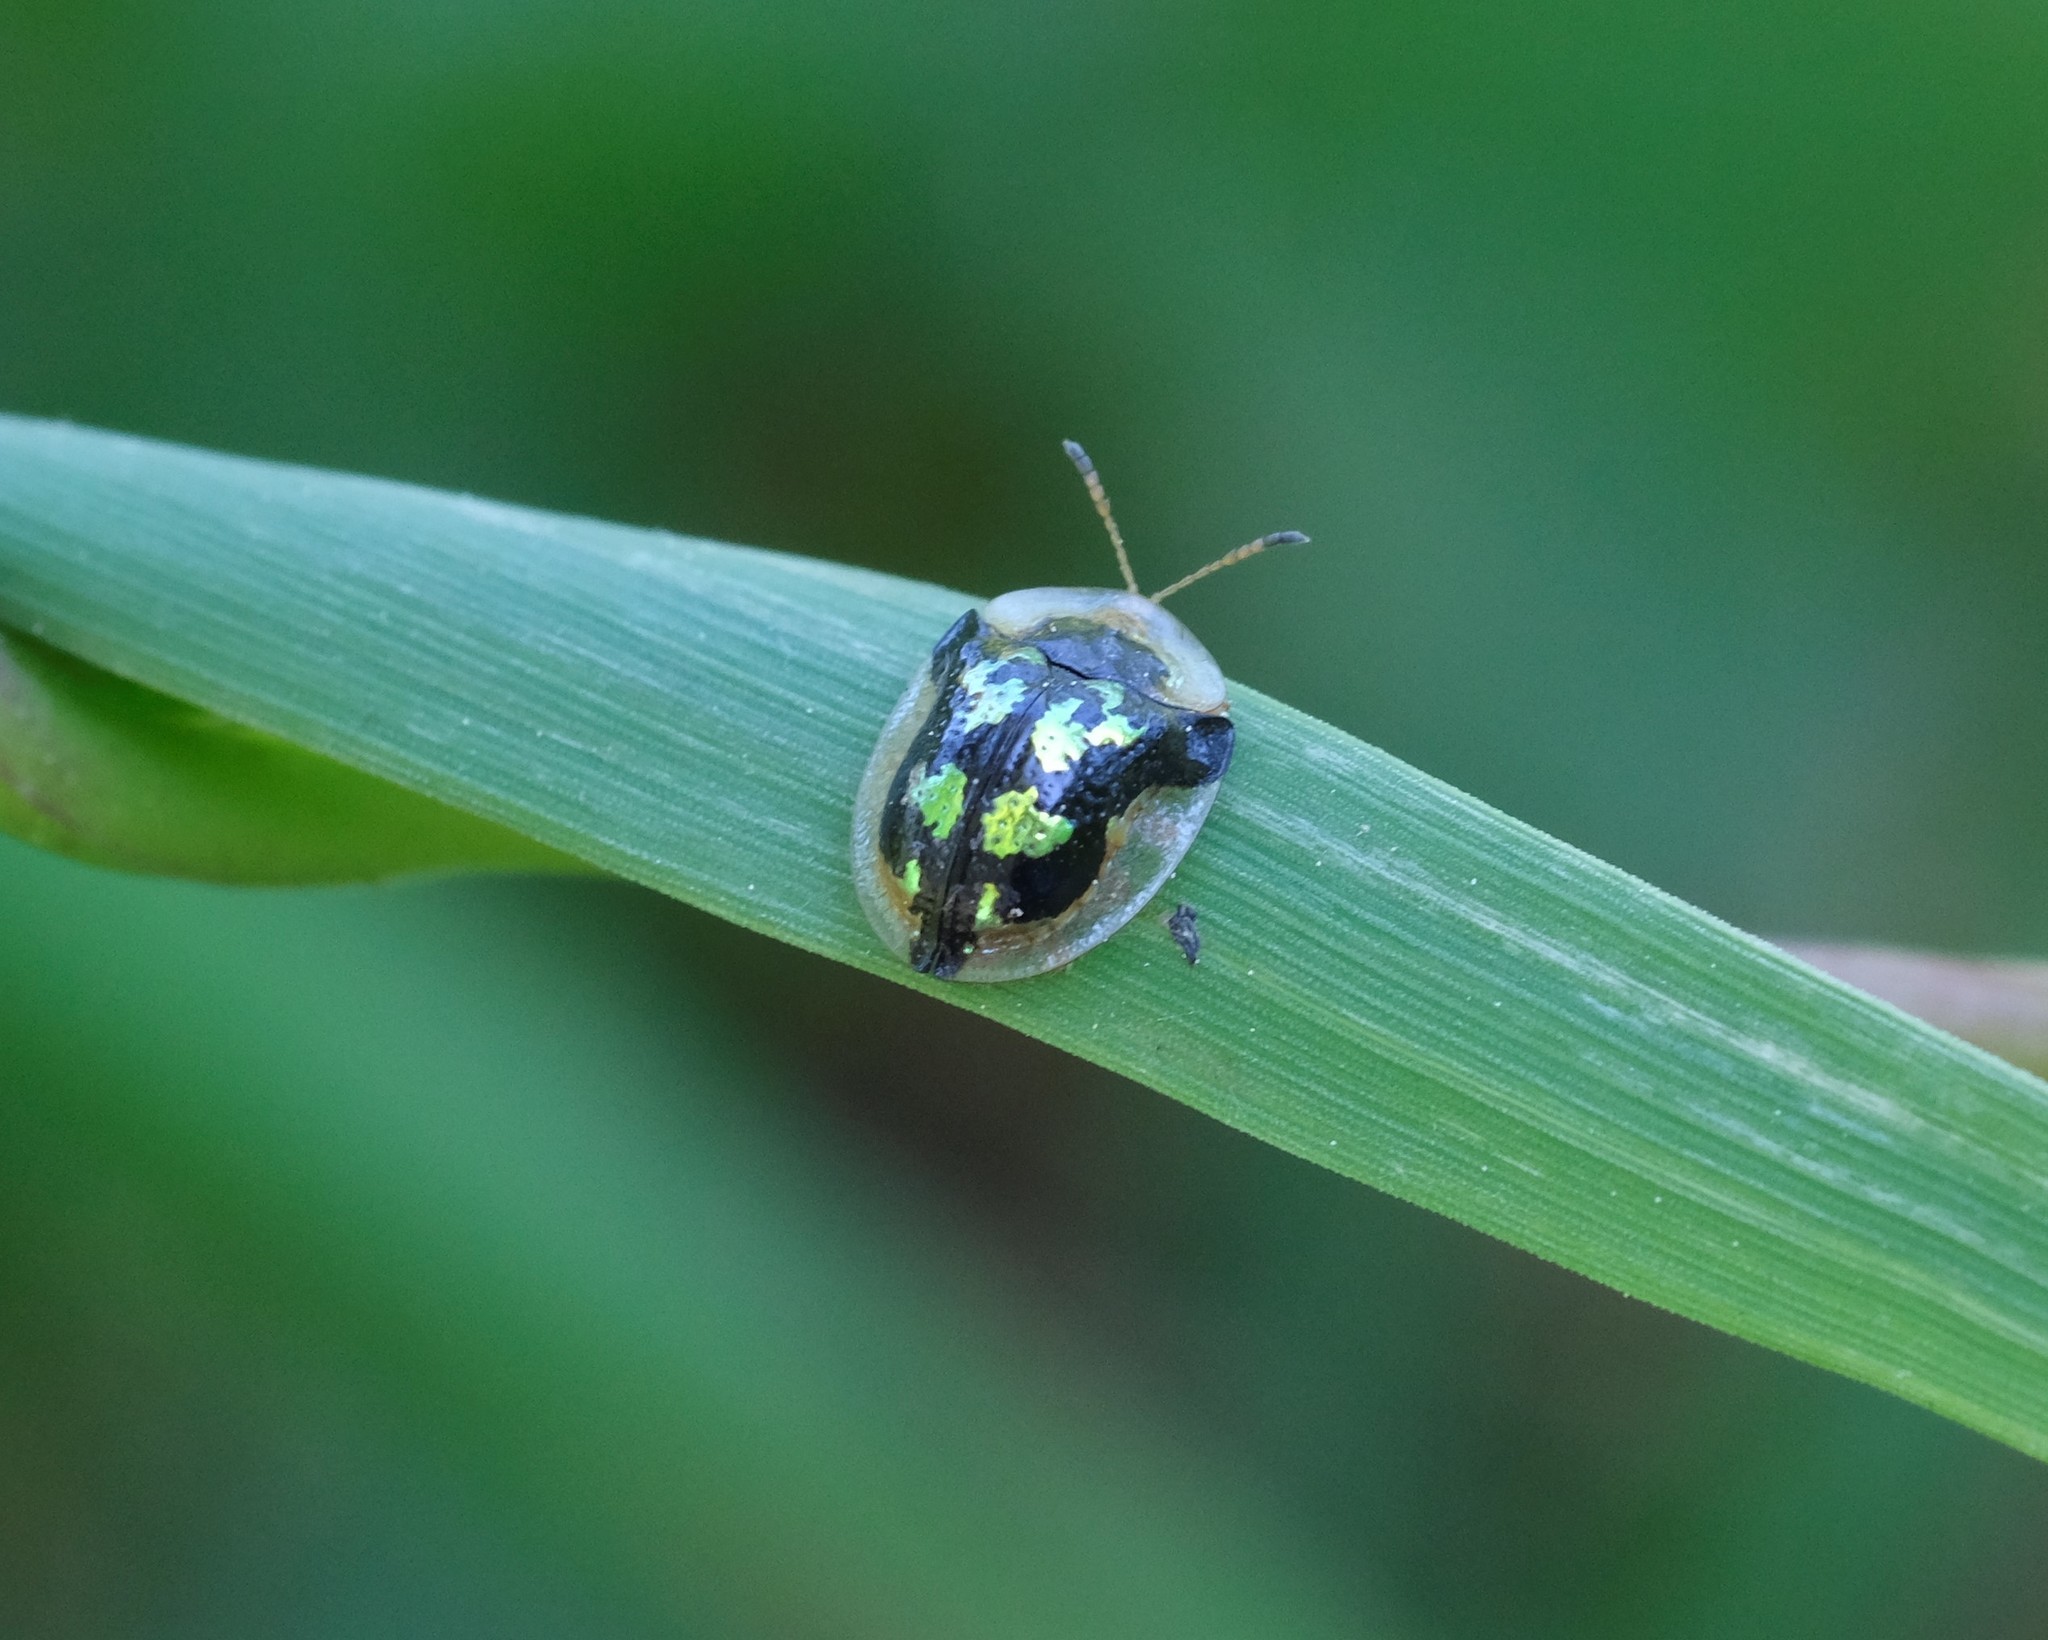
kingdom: Animalia
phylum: Arthropoda
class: Insecta
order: Coleoptera
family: Chrysomelidae
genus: Deloyala
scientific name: Deloyala guttata
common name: Mottled tortoise beetle
